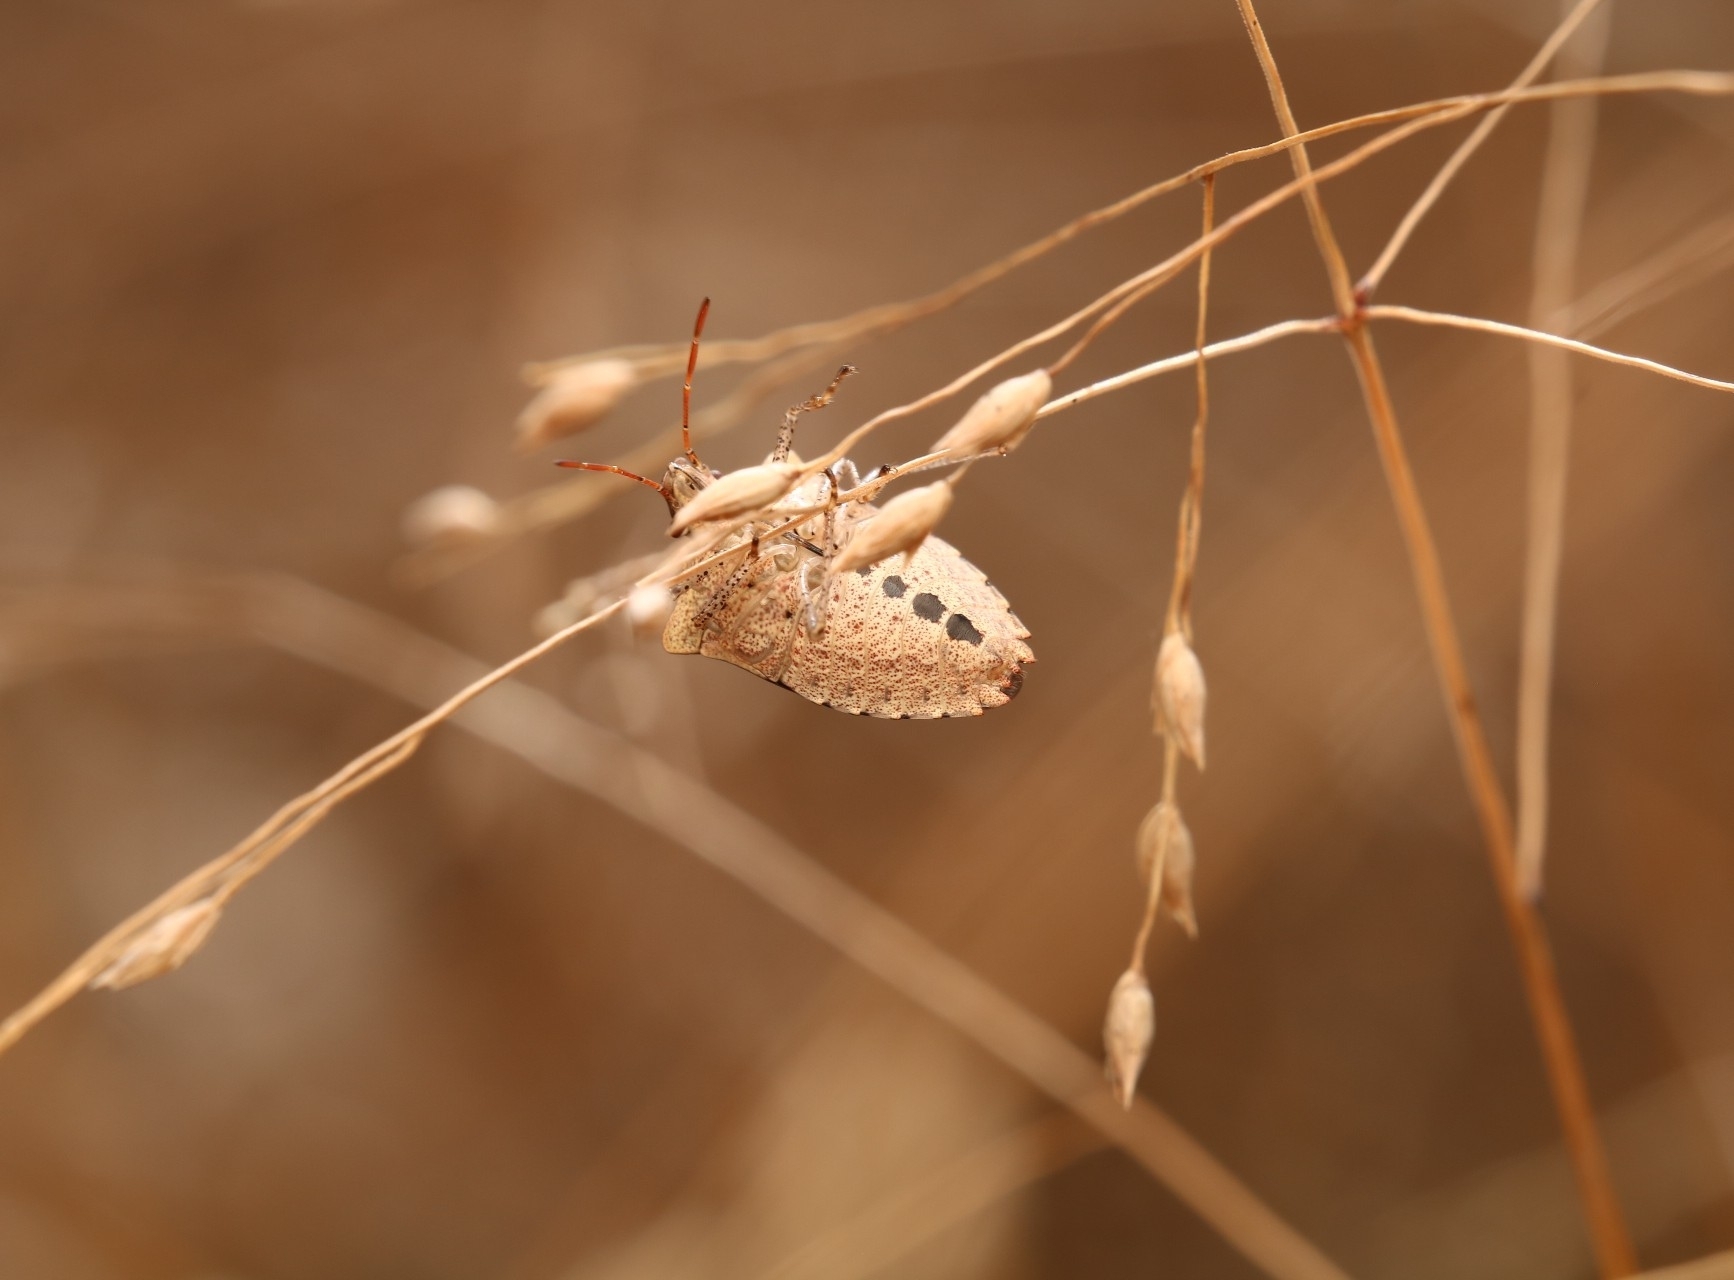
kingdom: Animalia
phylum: Arthropoda
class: Insecta
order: Hemiptera
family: Pentatomidae
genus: Euschistus
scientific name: Euschistus tristigmus
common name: Dusky stink bug
